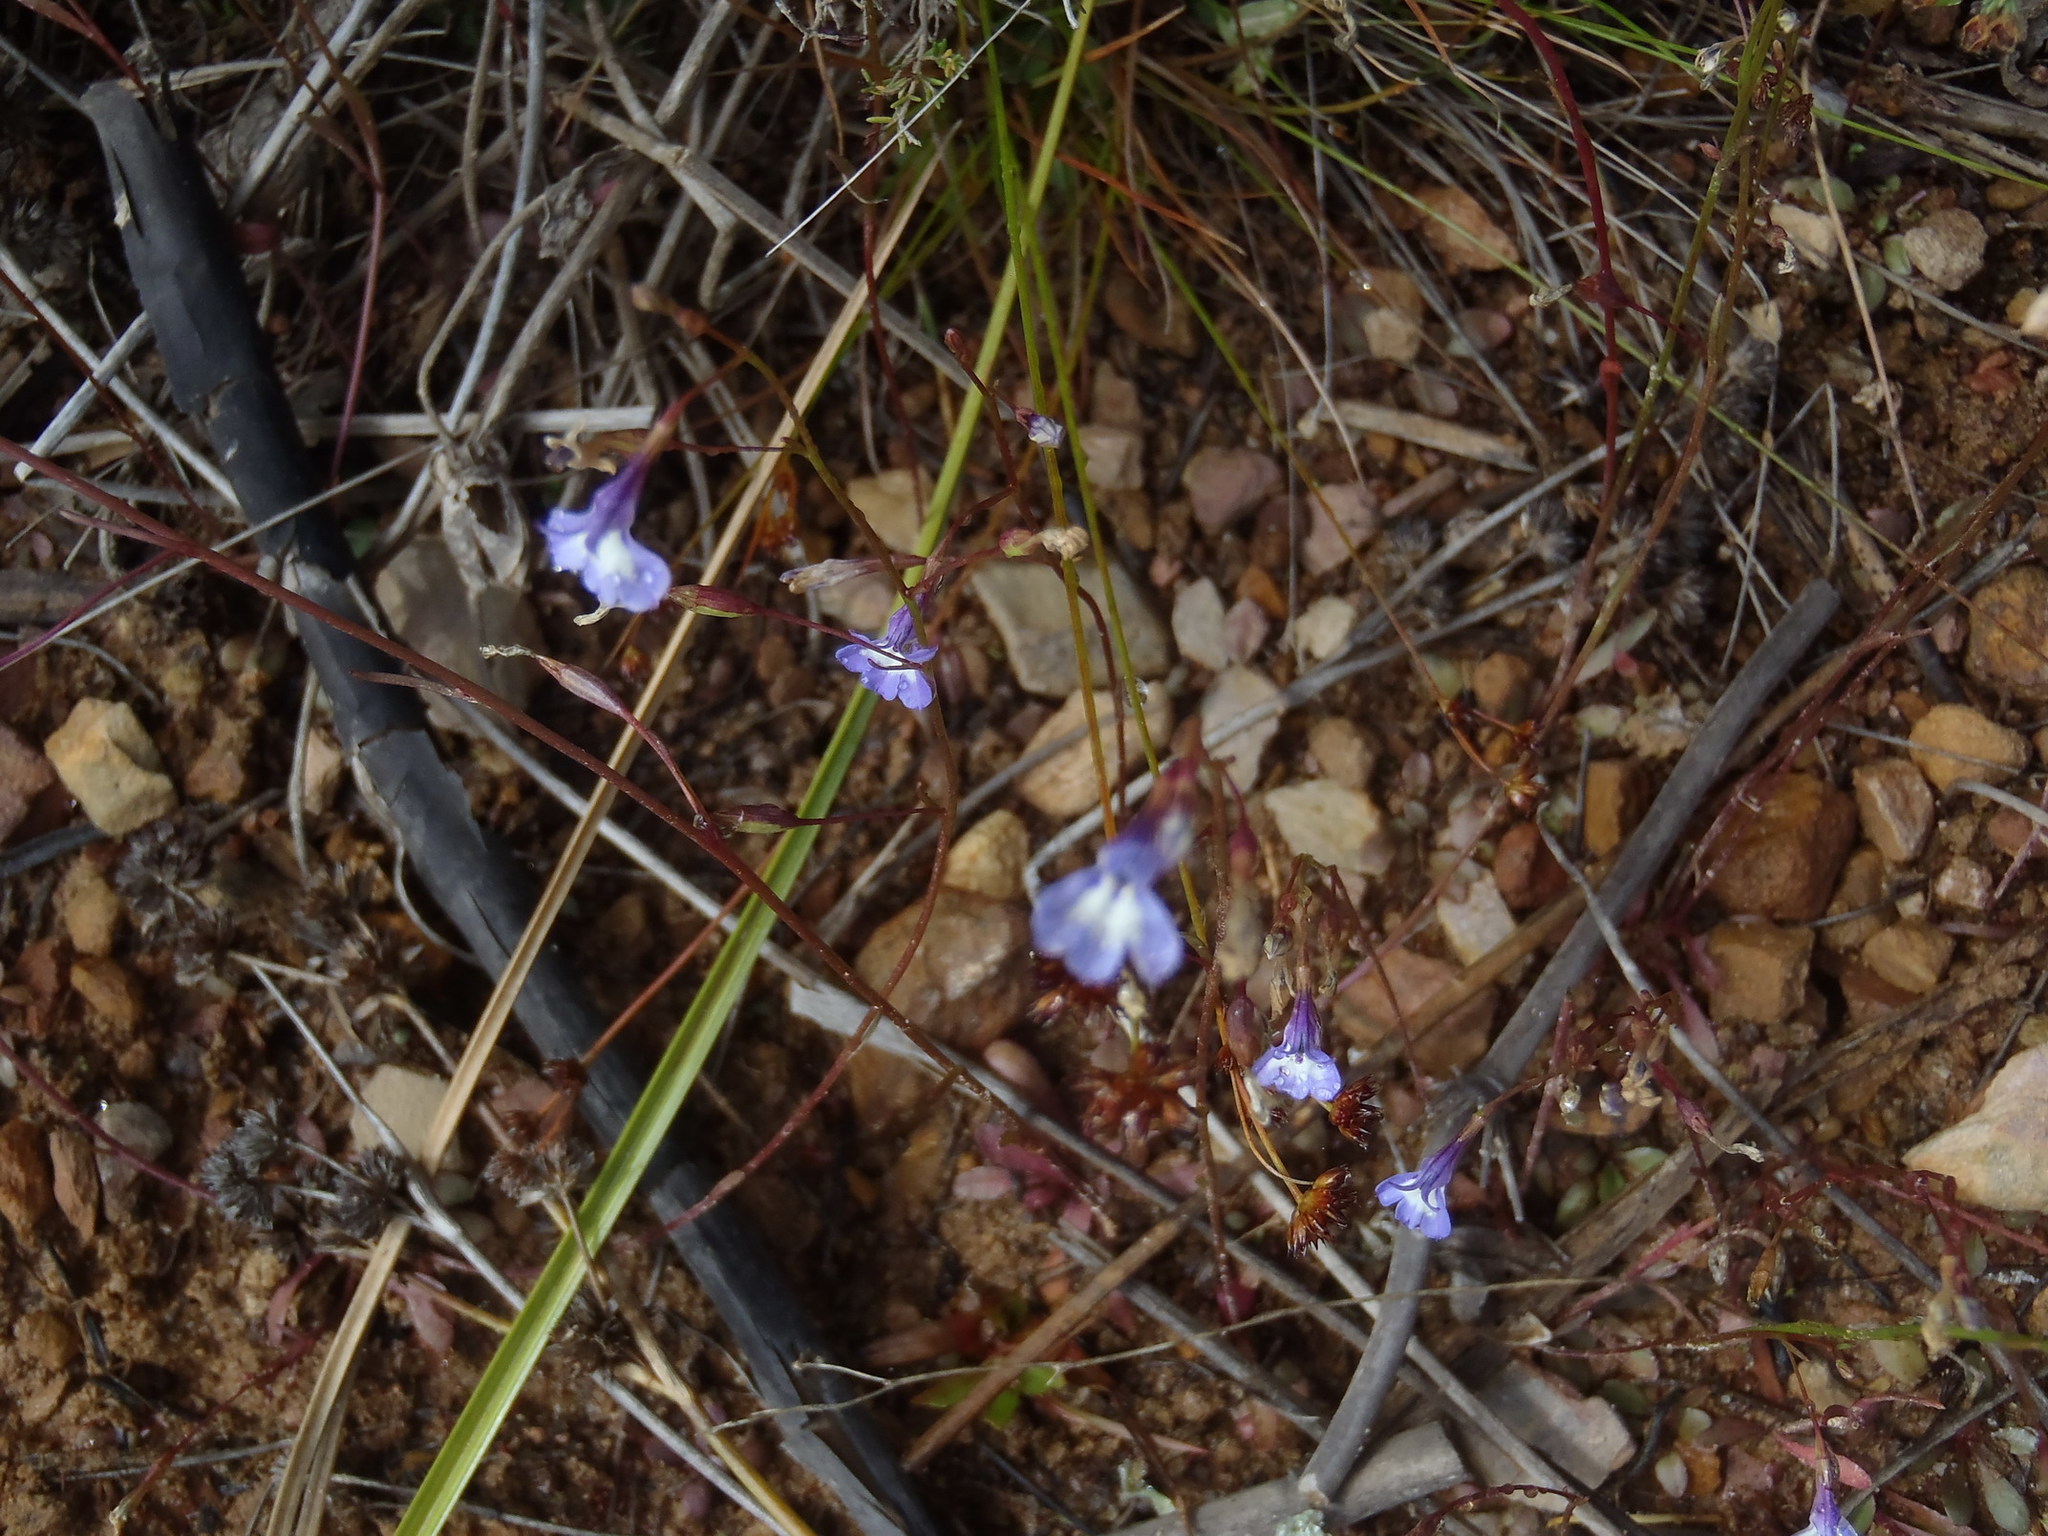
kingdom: Plantae
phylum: Tracheophyta
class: Magnoliopsida
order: Asterales
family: Campanulaceae
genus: Lobelia
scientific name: Lobelia erinus
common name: Edging lobelia
